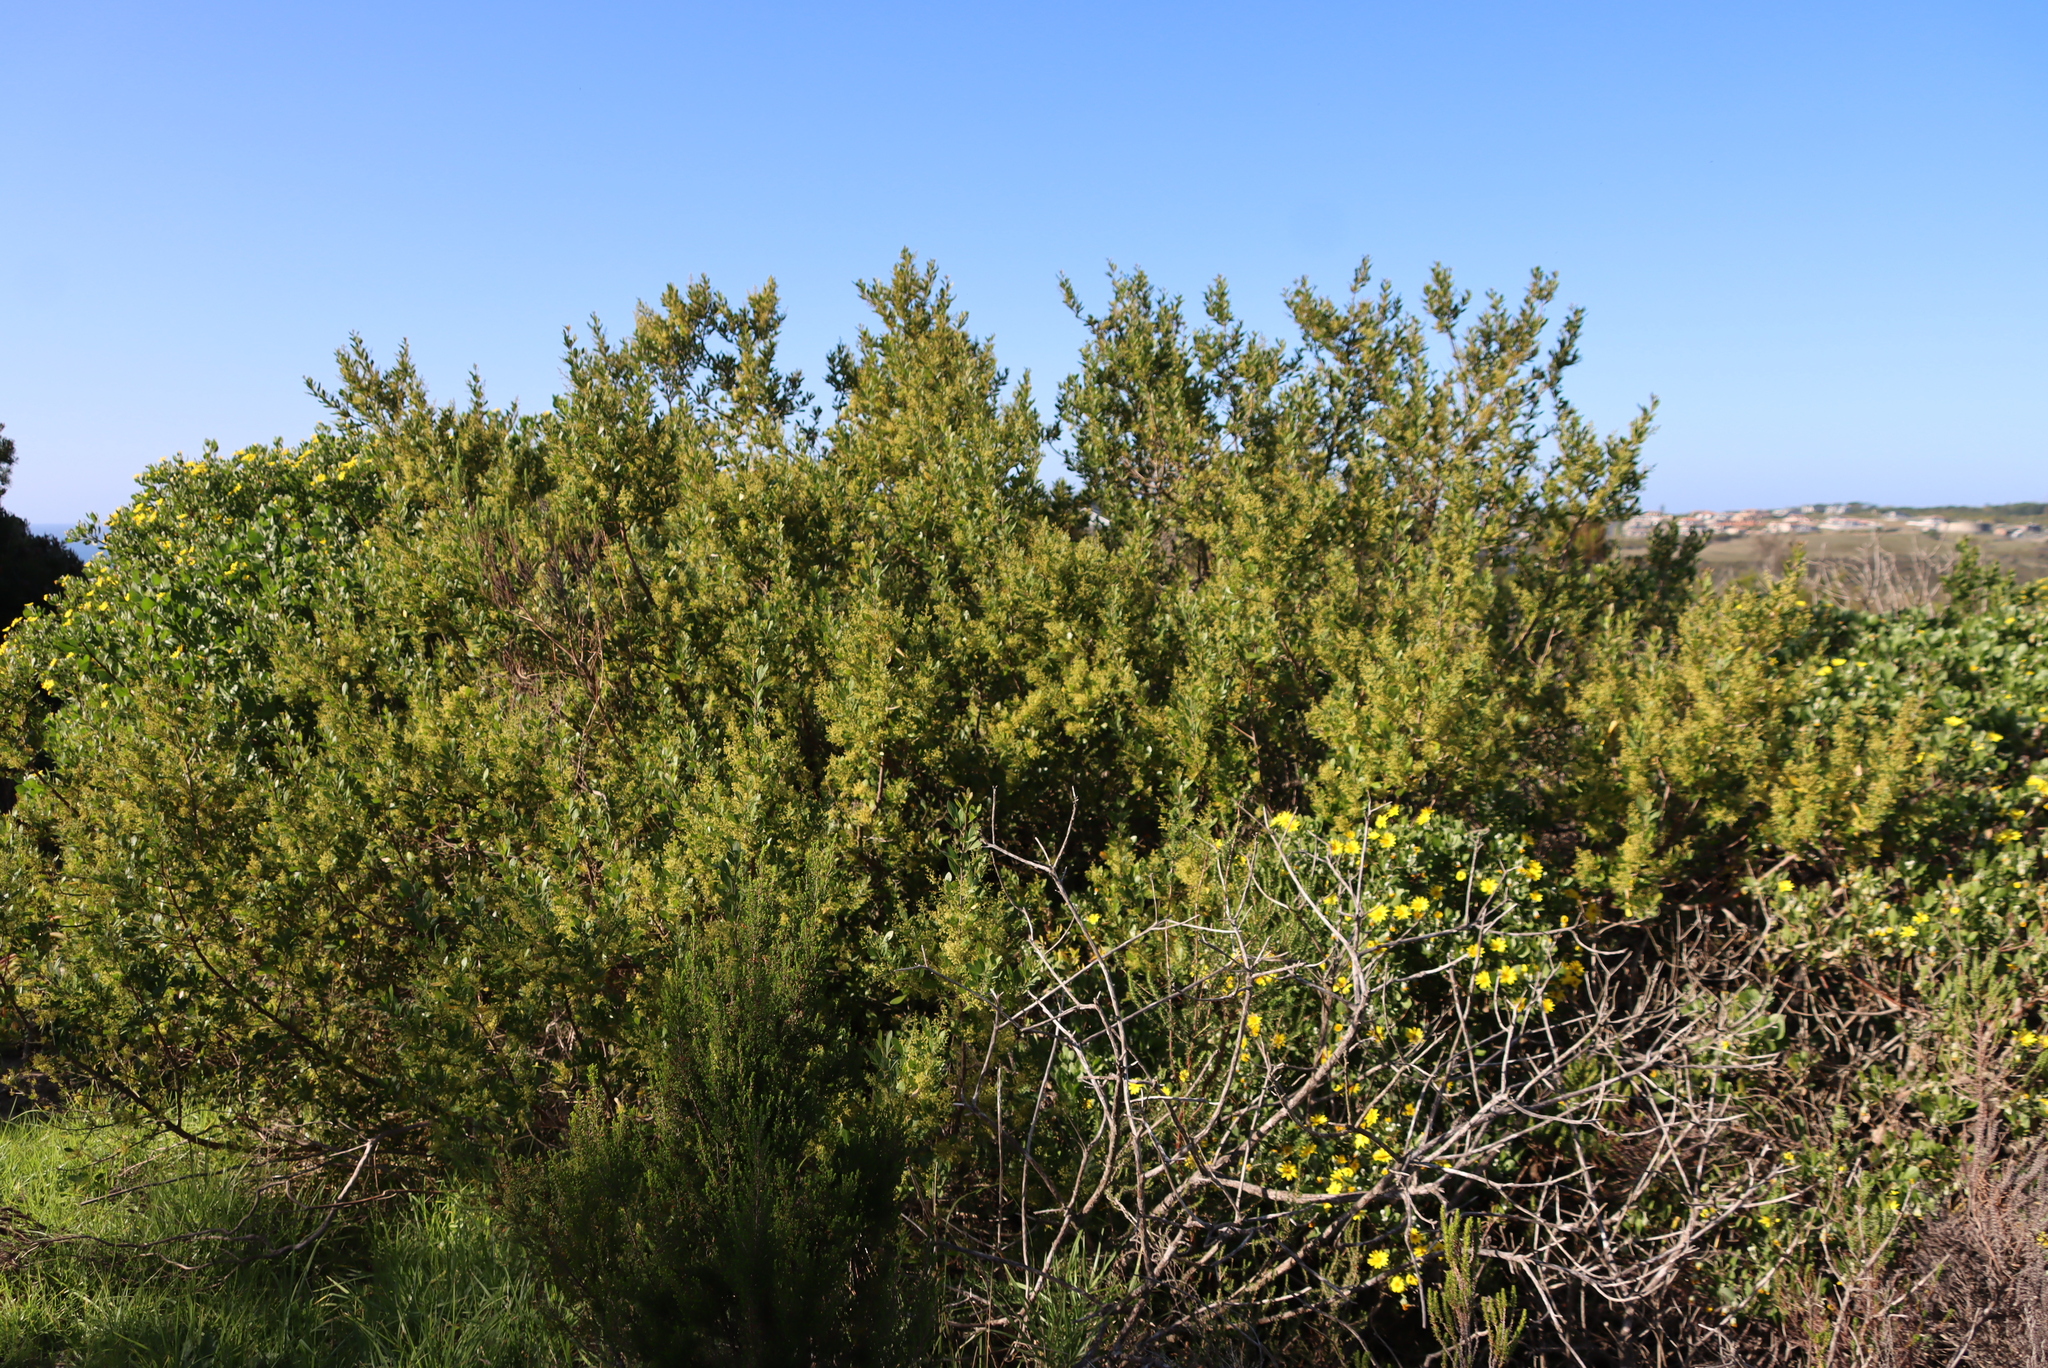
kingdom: Plantae
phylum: Tracheophyta
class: Magnoliopsida
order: Sapindales
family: Anacardiaceae
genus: Searsia
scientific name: Searsia lucida
